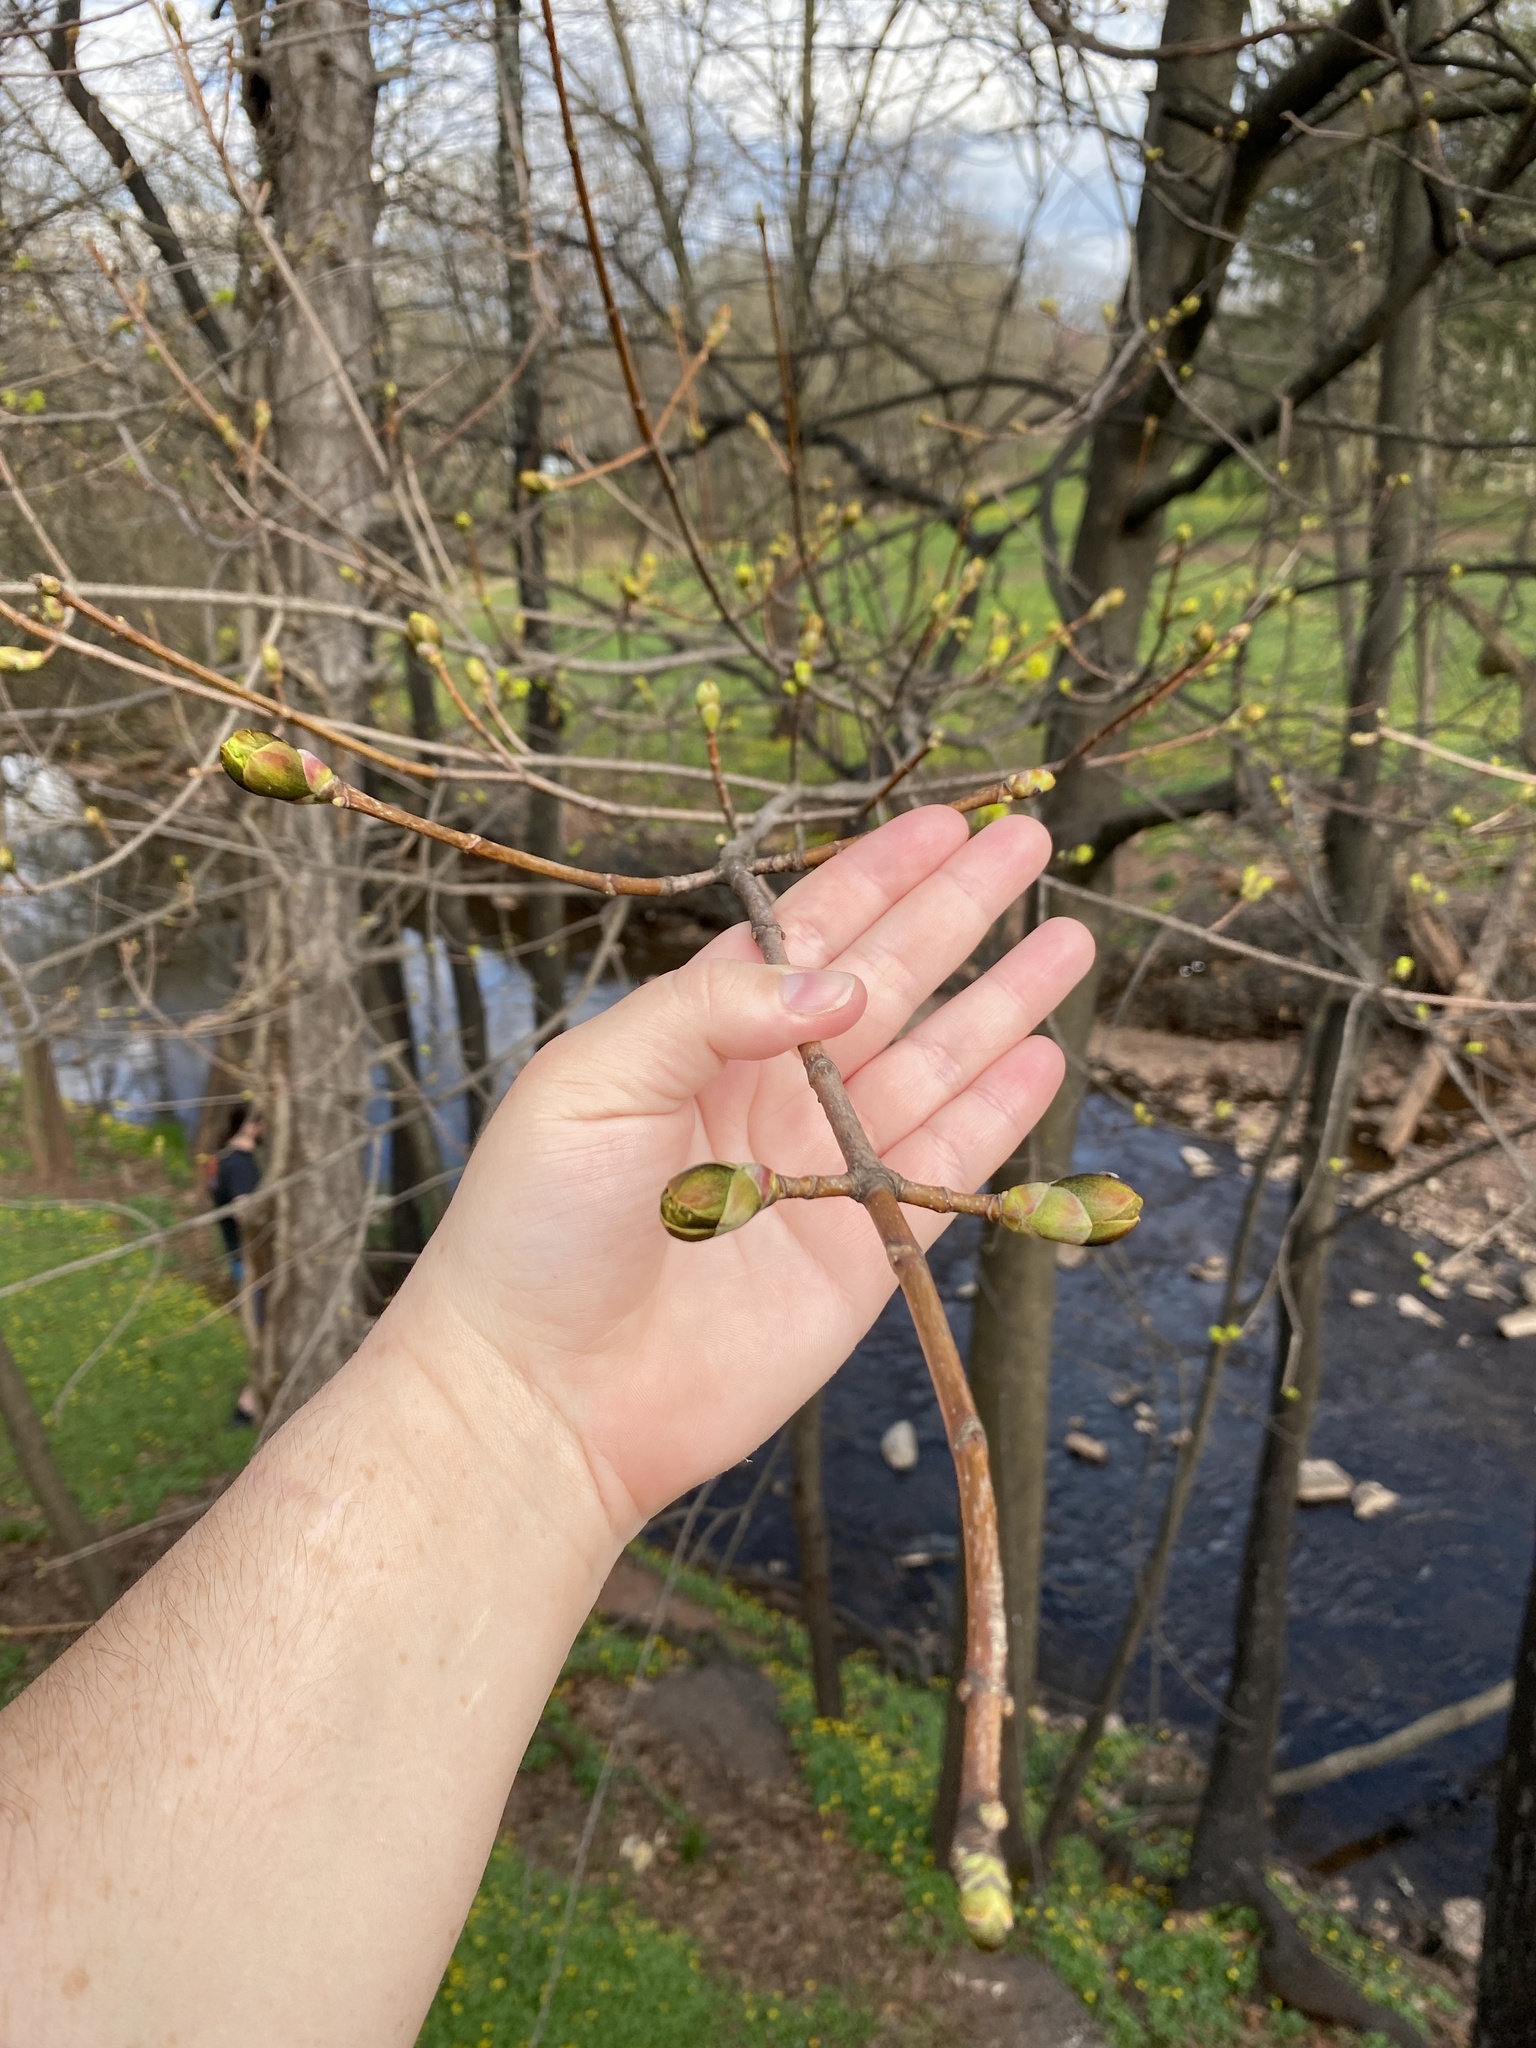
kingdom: Plantae
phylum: Tracheophyta
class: Magnoliopsida
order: Sapindales
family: Sapindaceae
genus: Acer
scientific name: Acer platanoides
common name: Norway maple
